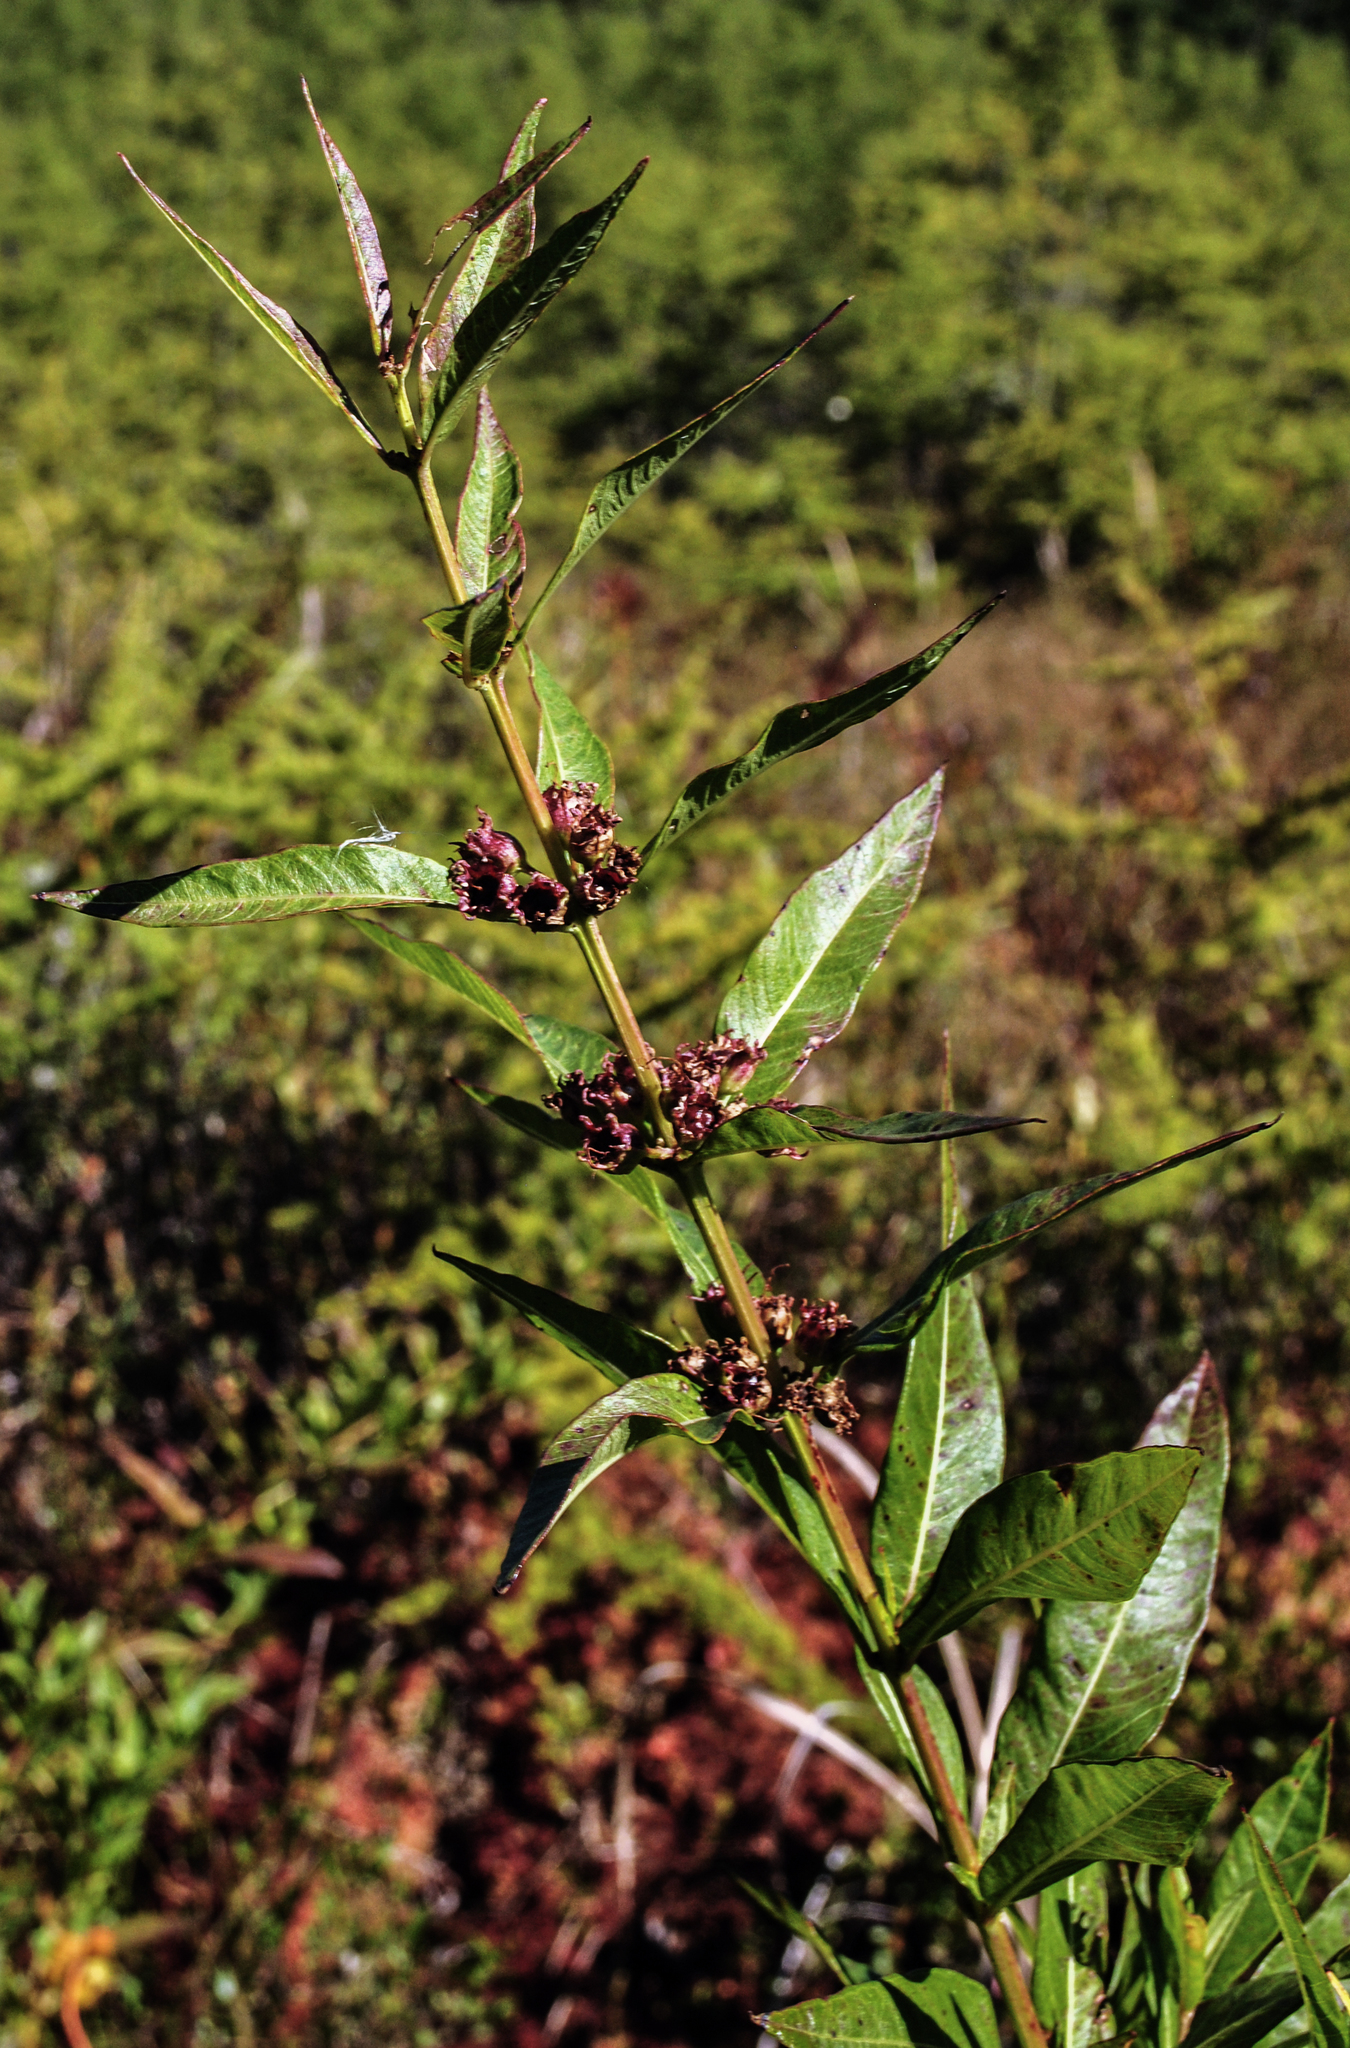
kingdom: Plantae
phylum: Tracheophyta
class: Magnoliopsida
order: Myrtales
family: Lythraceae
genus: Decodon
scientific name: Decodon verticillatus
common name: Hairy swamp loosestrife
